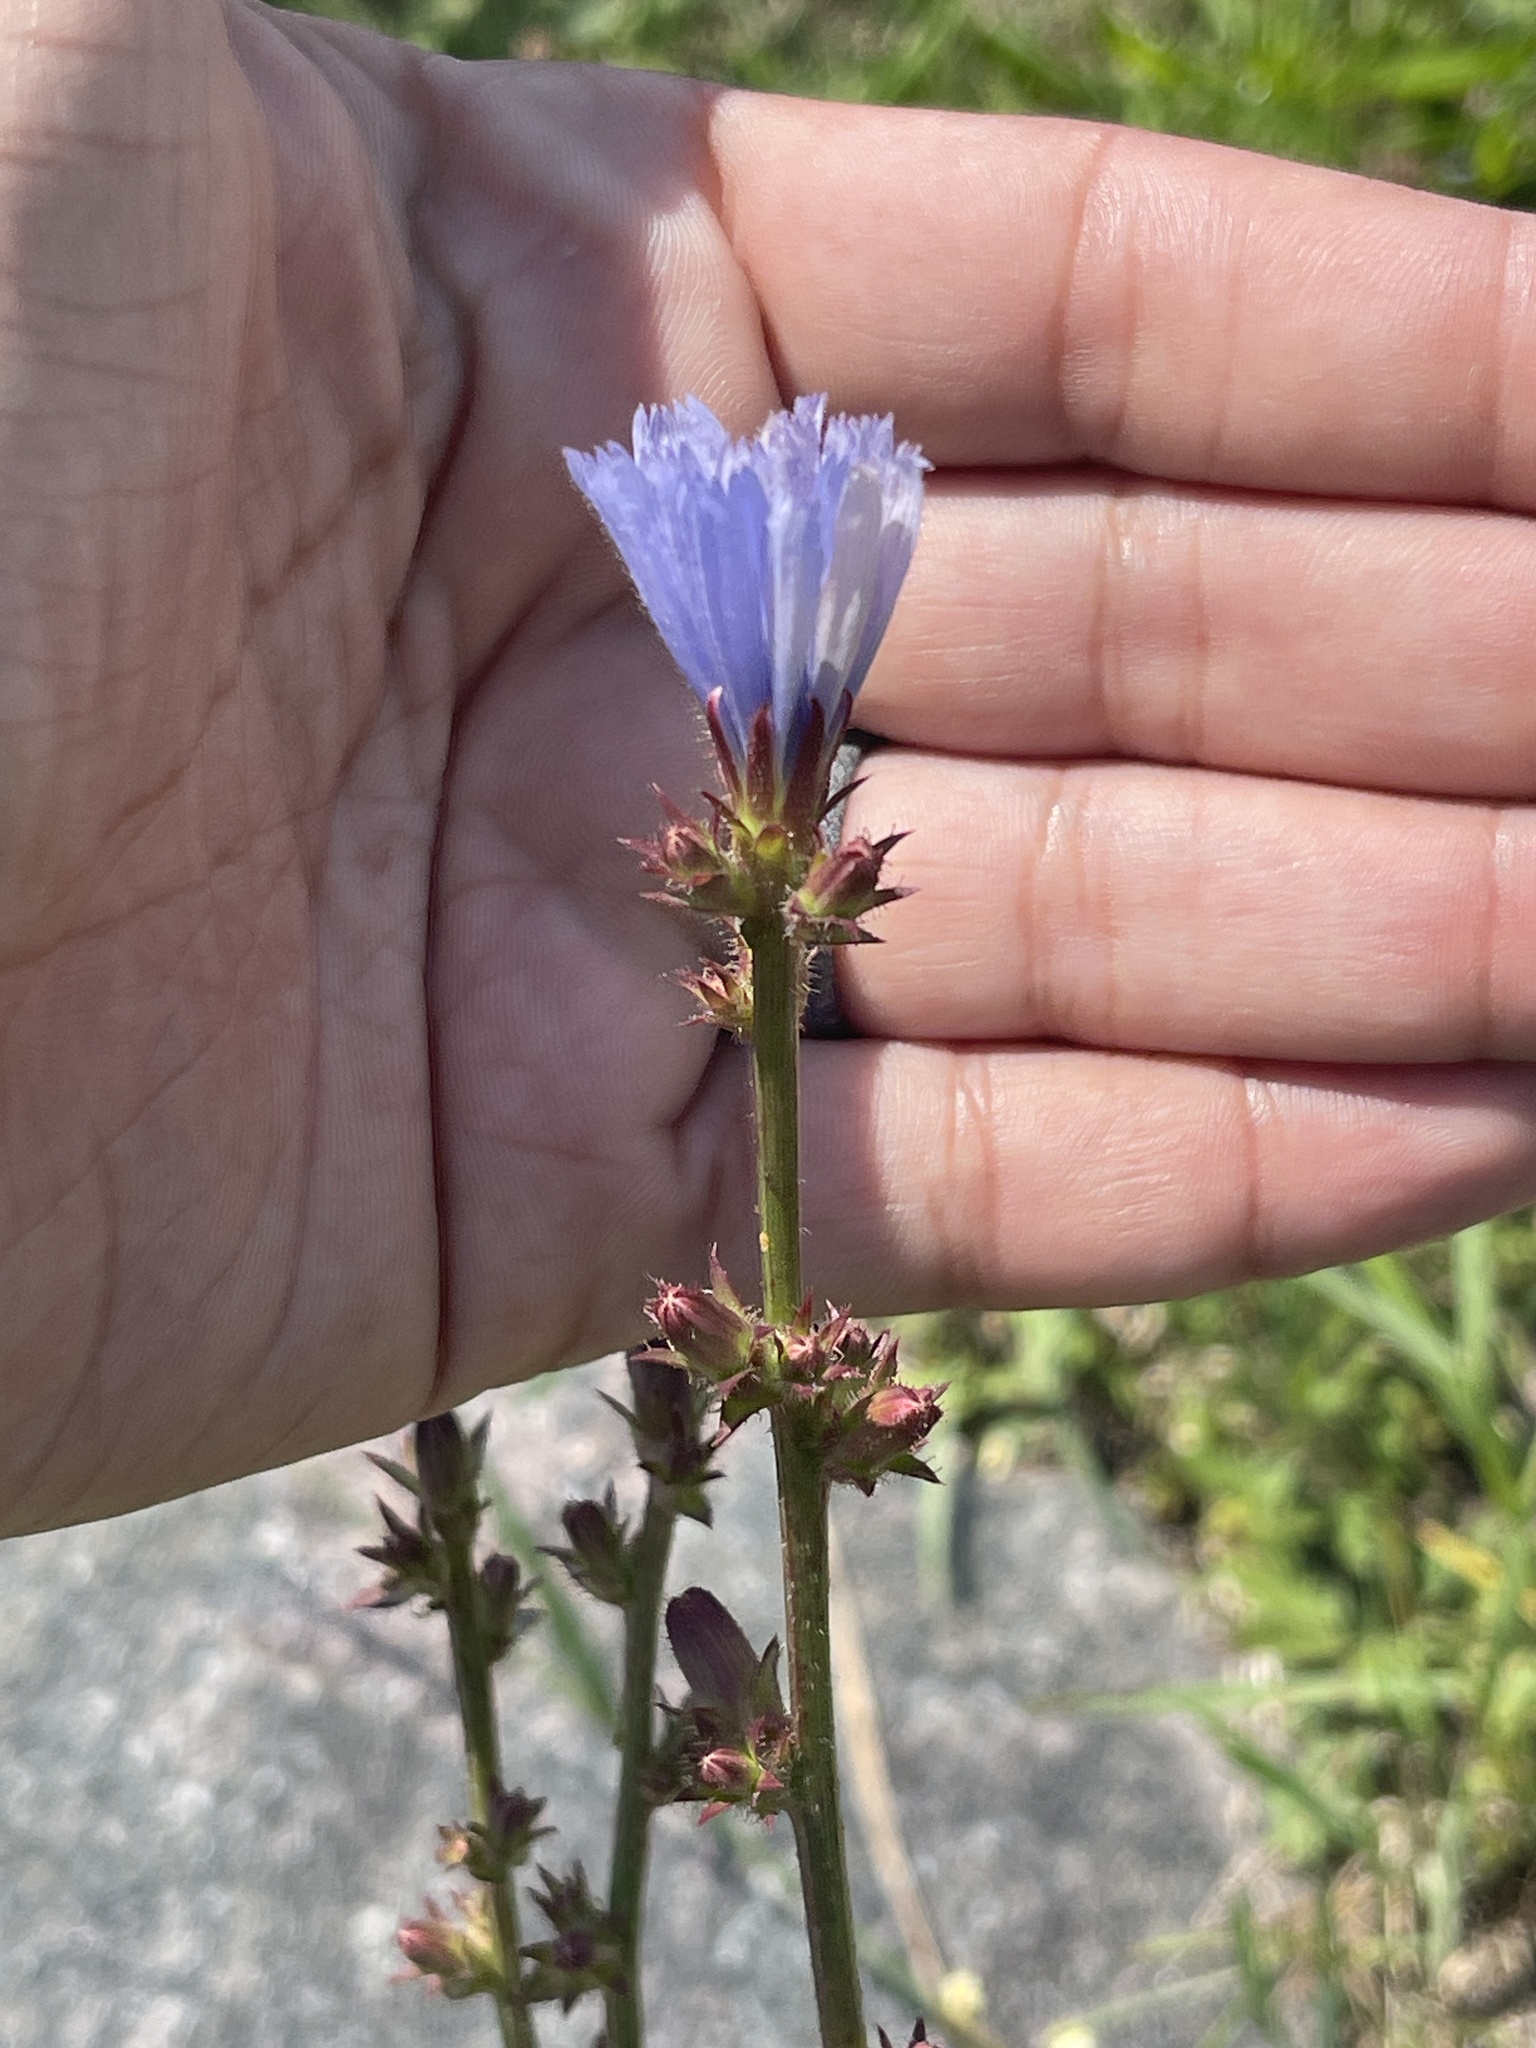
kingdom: Plantae
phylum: Tracheophyta
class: Magnoliopsida
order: Asterales
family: Asteraceae
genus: Cichorium
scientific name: Cichorium intybus
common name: Chicory
